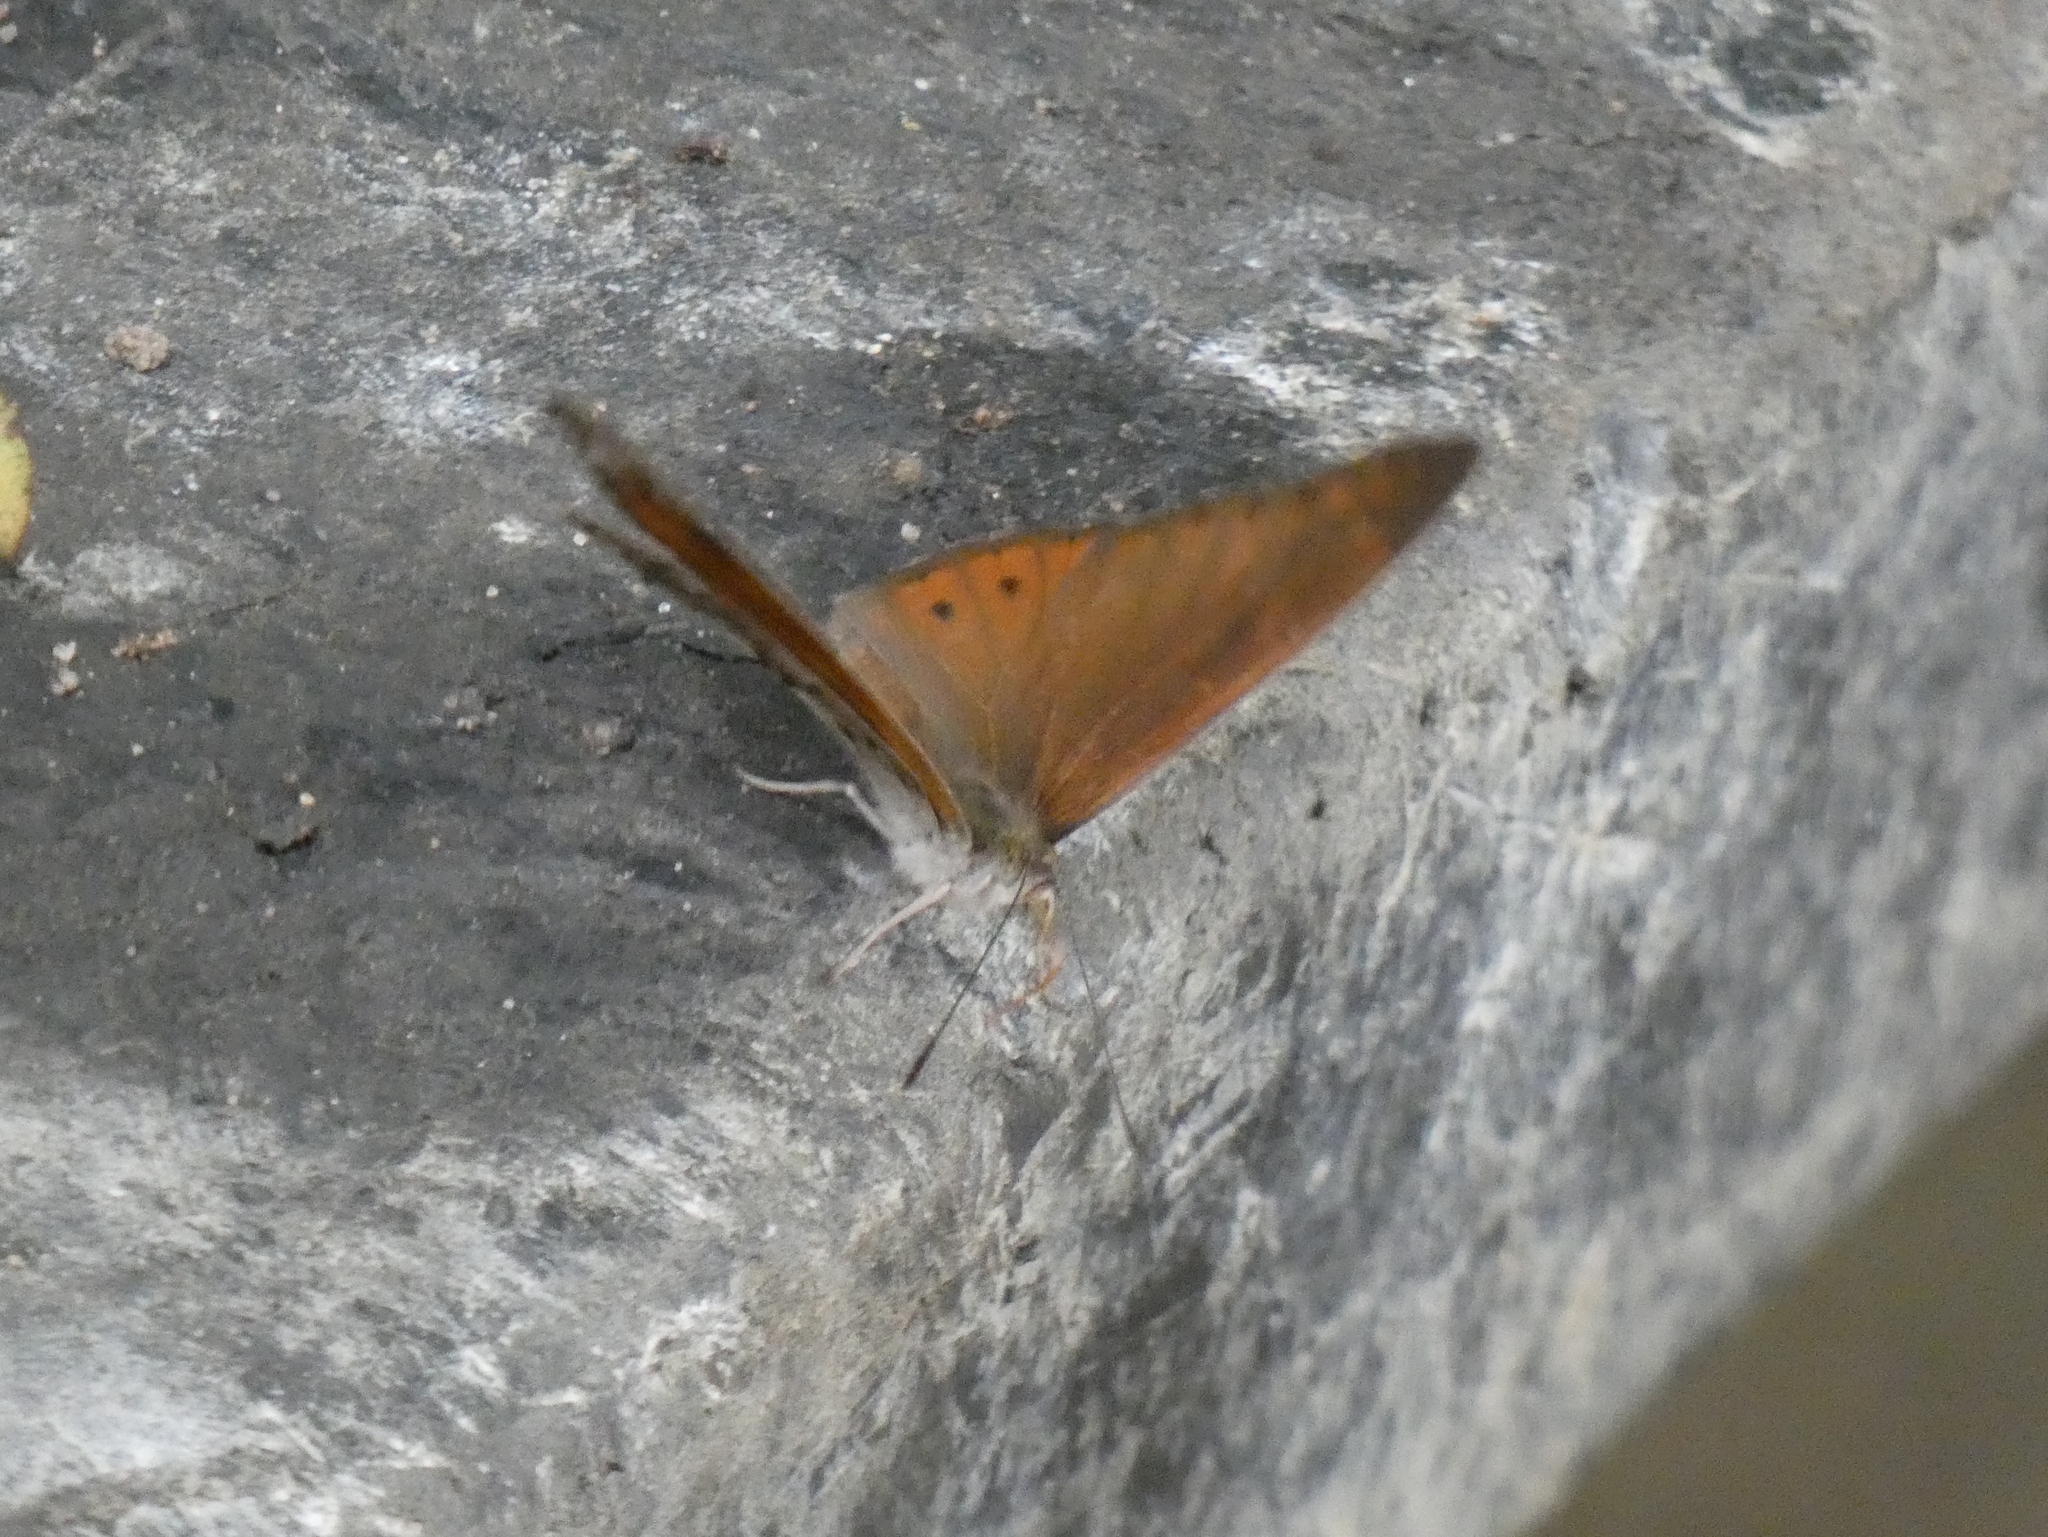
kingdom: Animalia
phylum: Arthropoda
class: Insecta
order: Lepidoptera
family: Nymphalidae
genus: Asterope
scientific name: Asterope boisduvali
